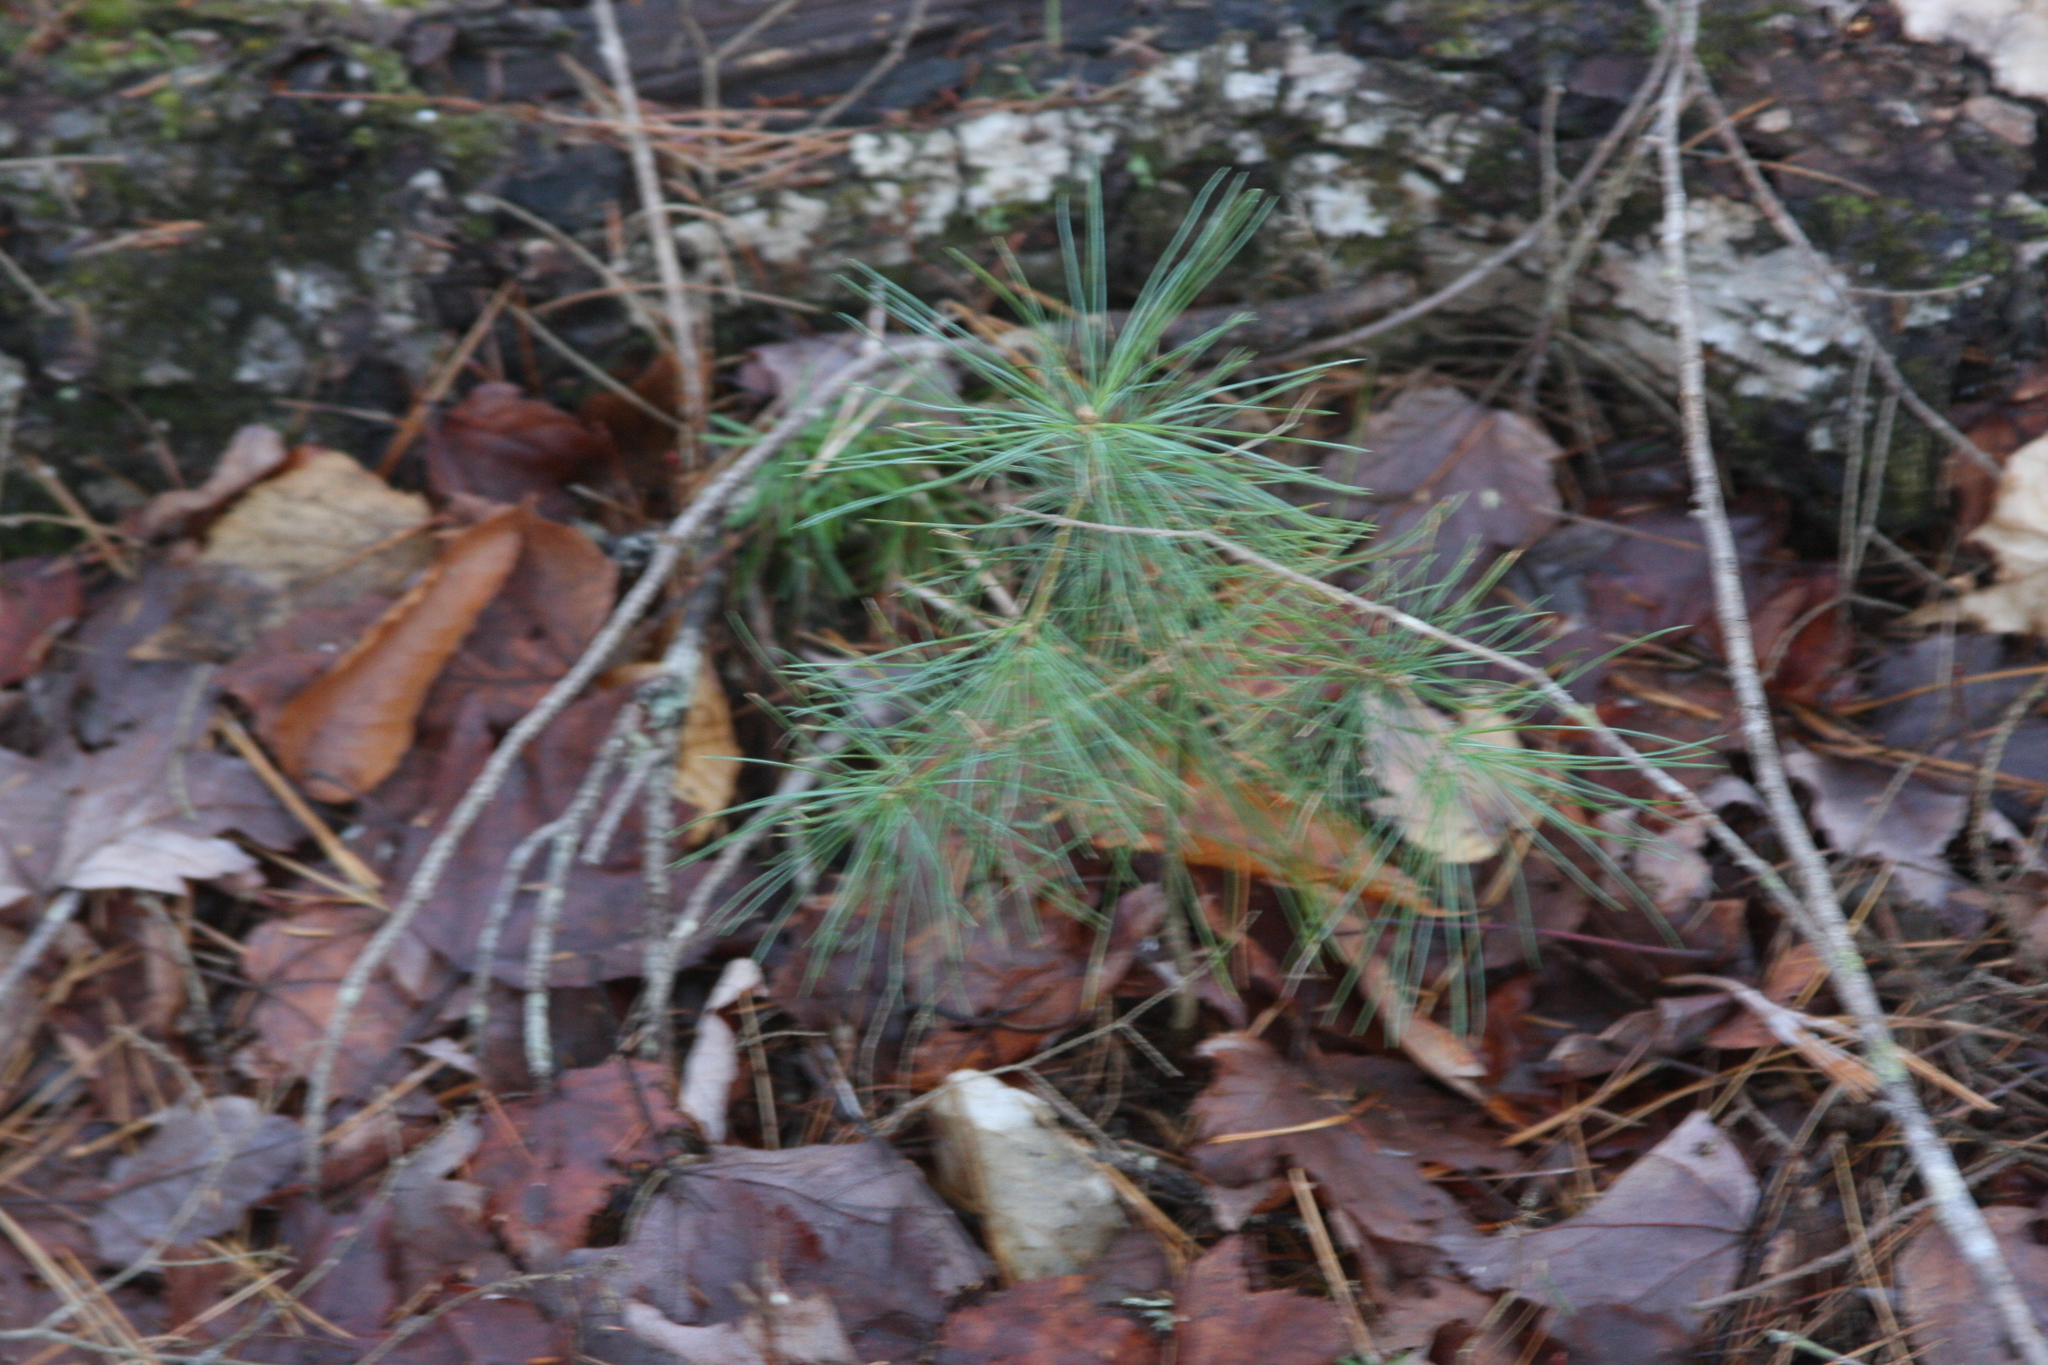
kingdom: Plantae
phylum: Tracheophyta
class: Pinopsida
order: Pinales
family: Pinaceae
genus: Pinus
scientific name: Pinus strobus
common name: Weymouth pine
